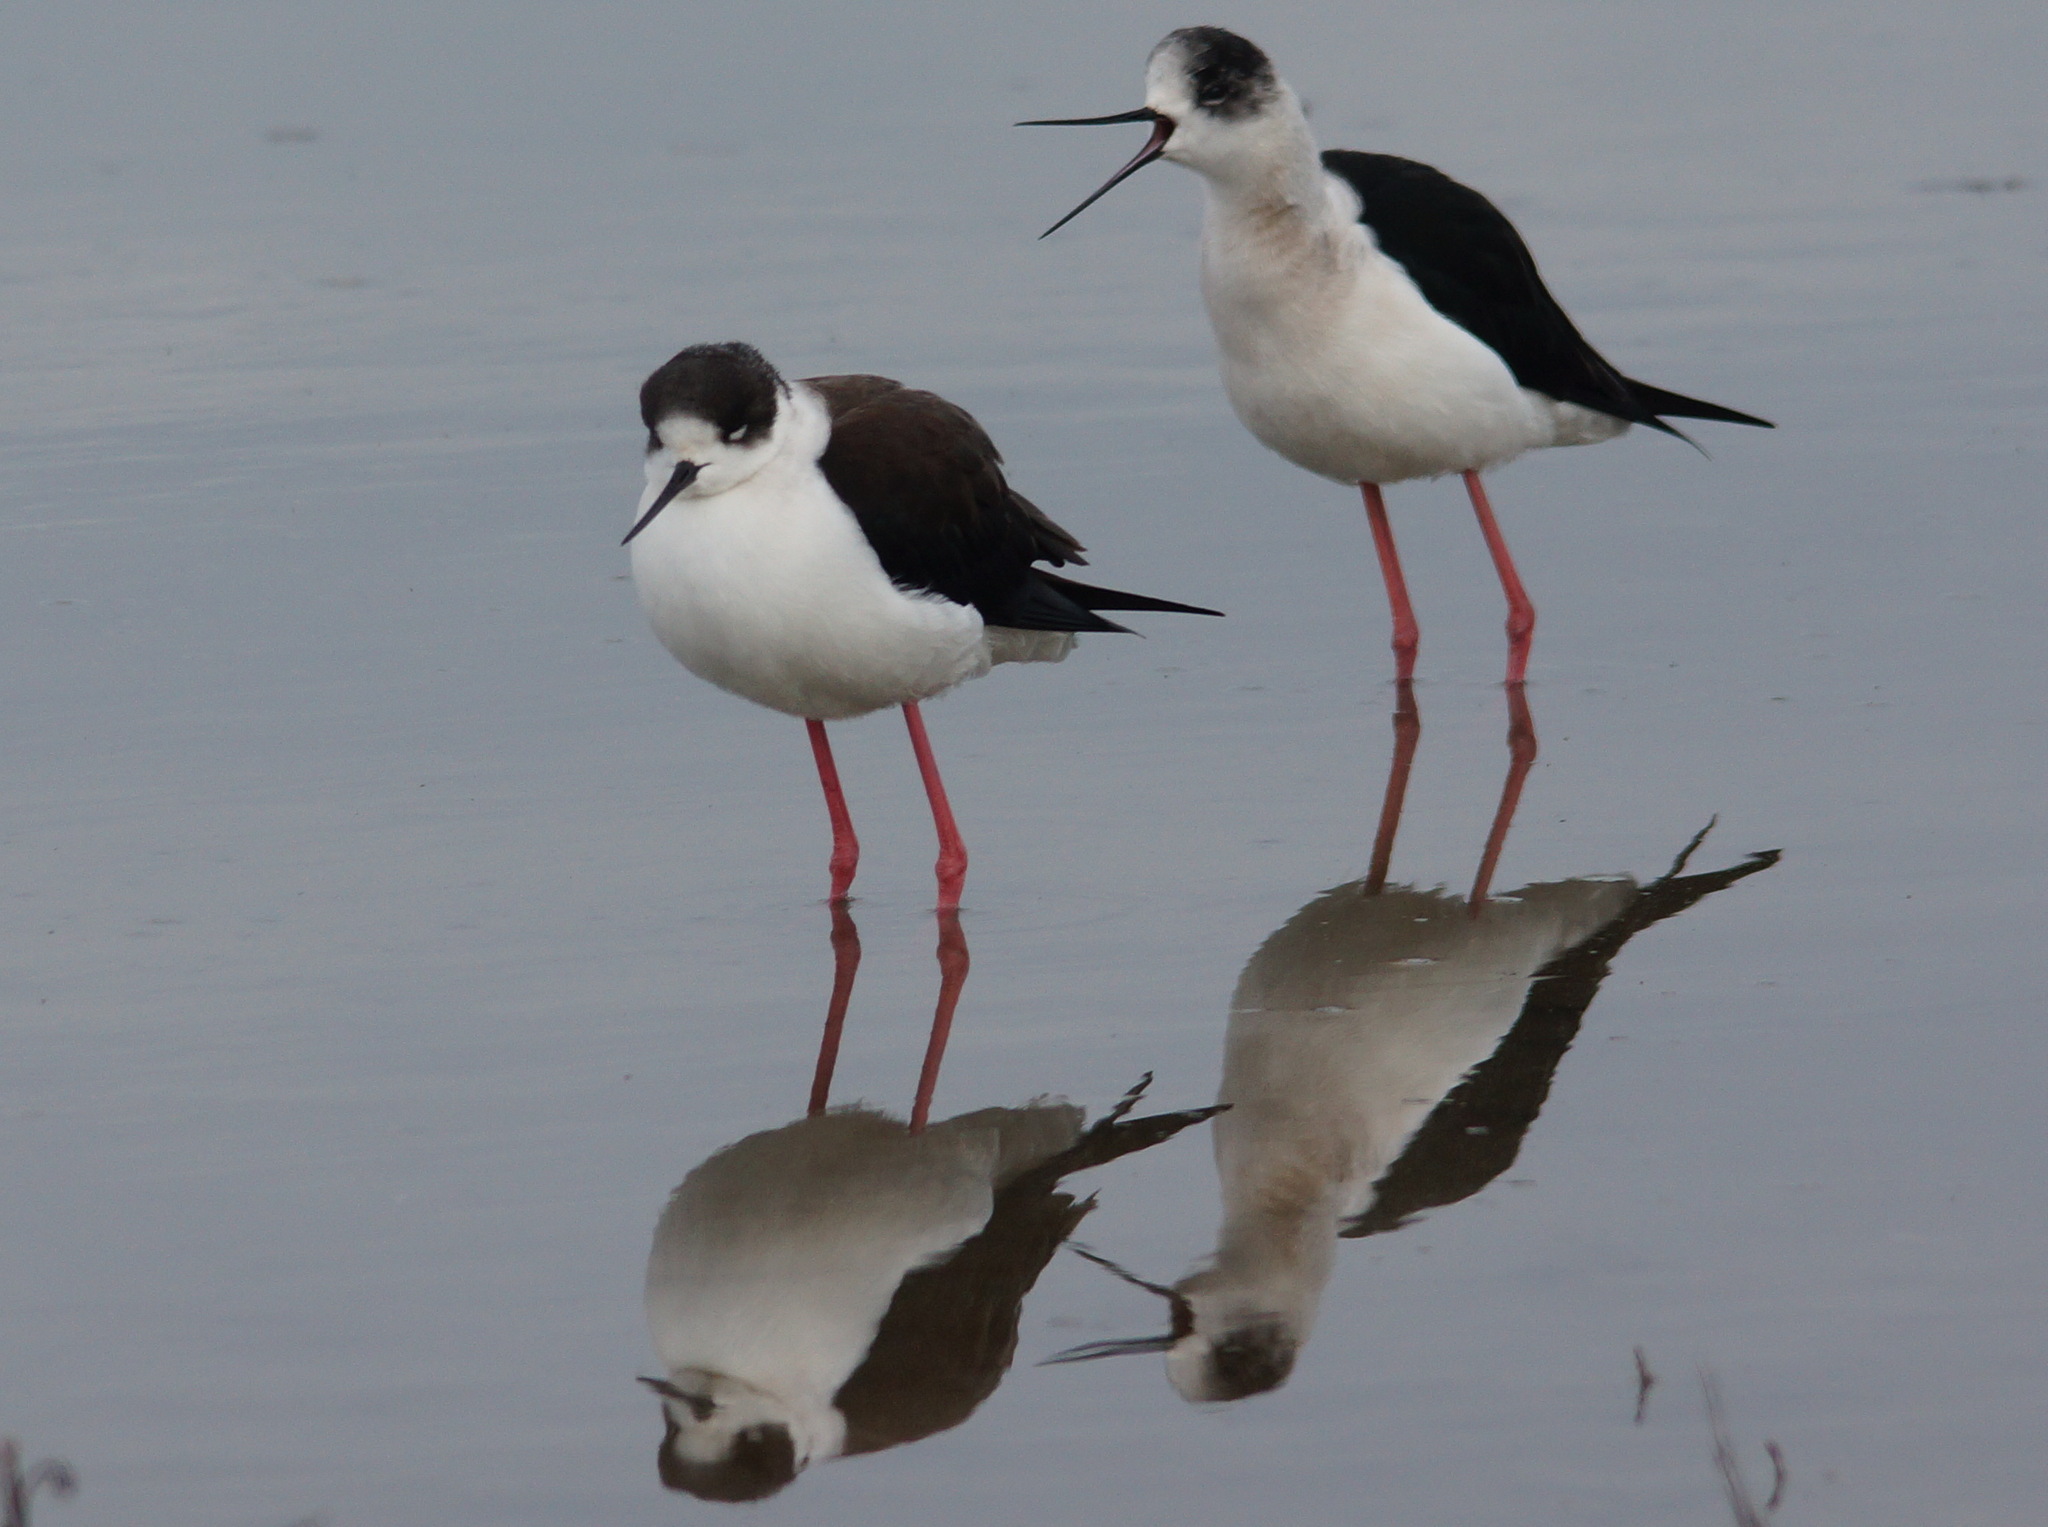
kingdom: Animalia
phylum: Chordata
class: Aves
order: Charadriiformes
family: Recurvirostridae
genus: Himantopus
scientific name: Himantopus himantopus
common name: Black-winged stilt
